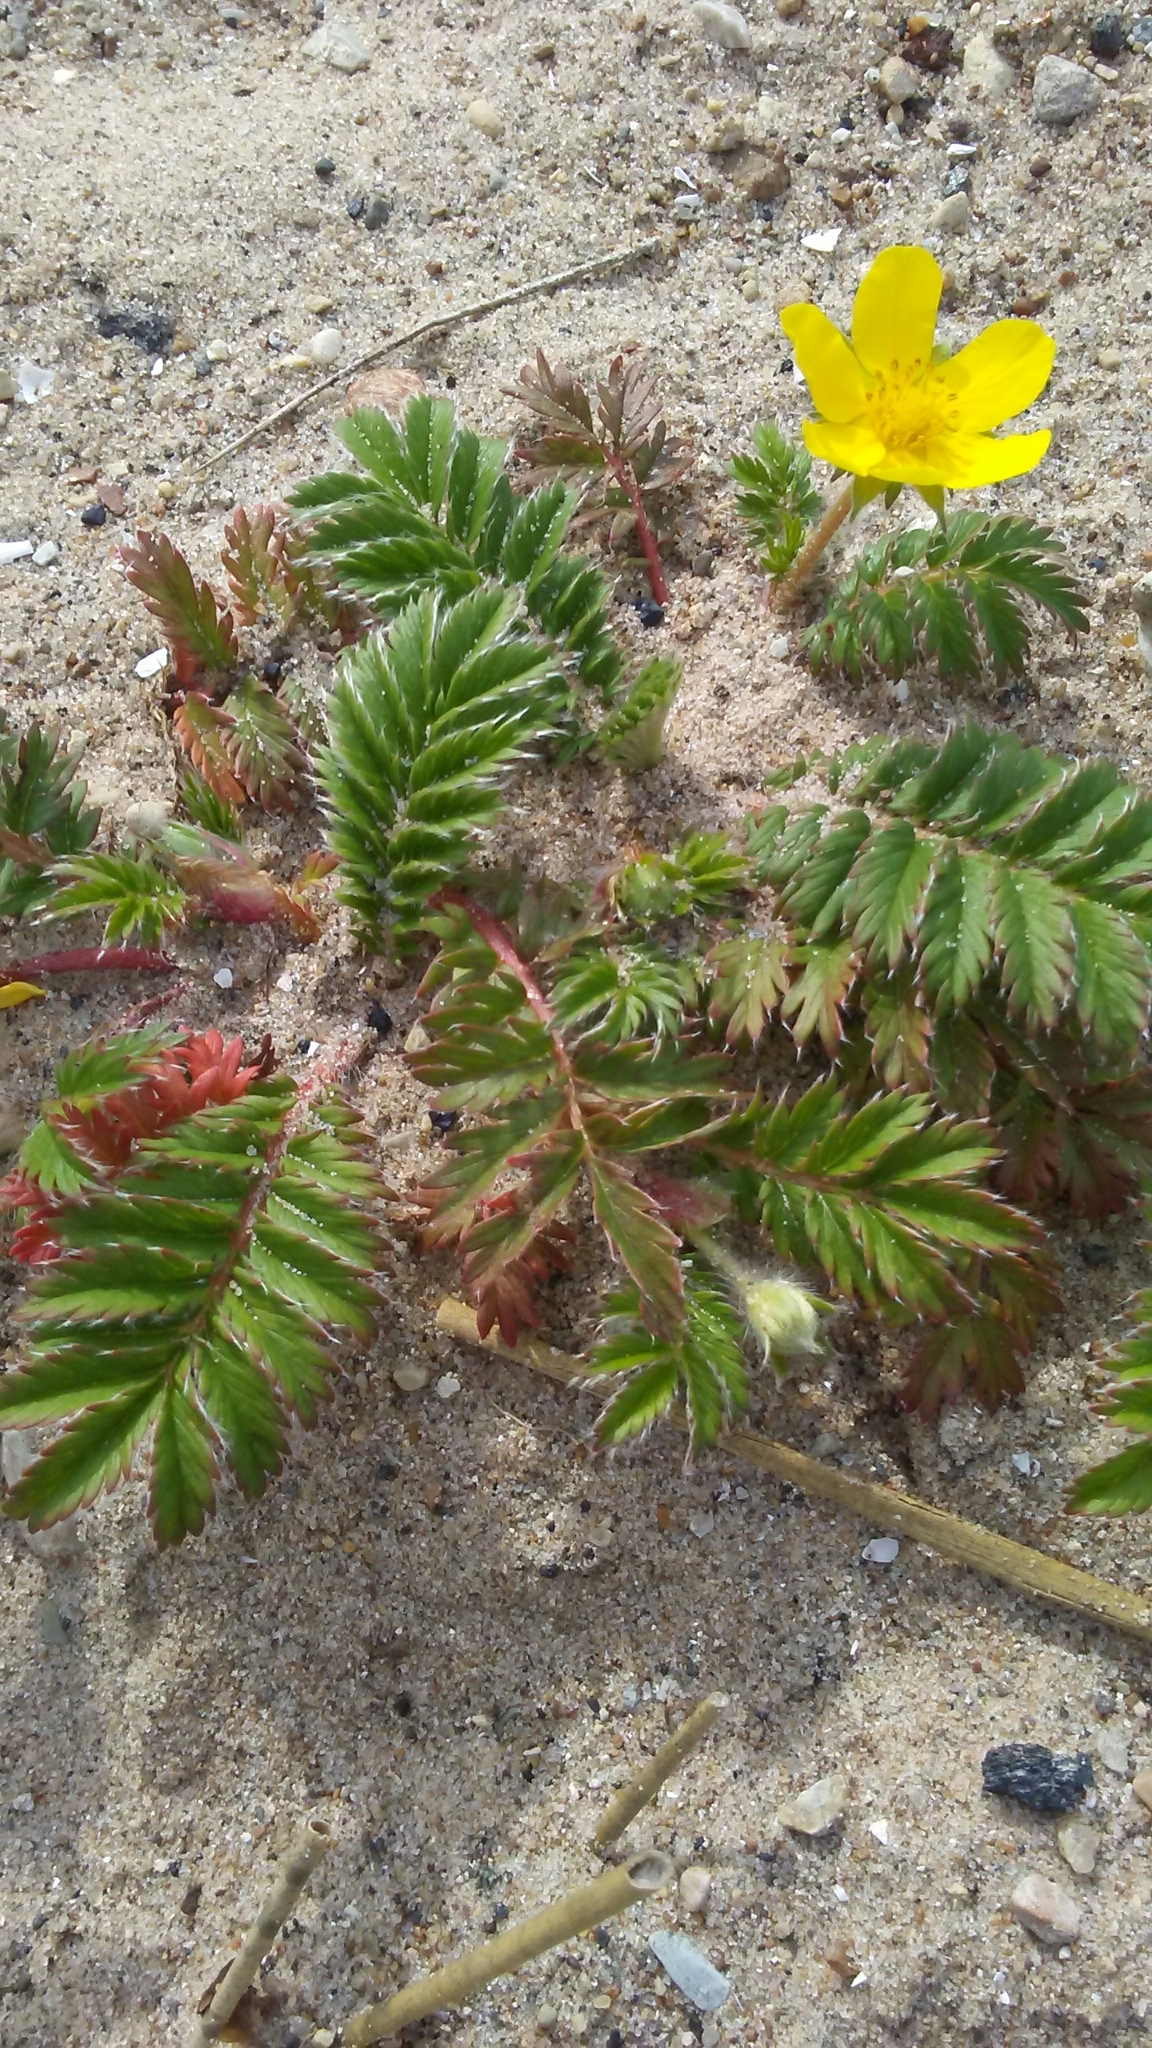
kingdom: Plantae
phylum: Tracheophyta
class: Magnoliopsida
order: Rosales
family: Rosaceae
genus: Argentina
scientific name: Argentina anserina
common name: Common silverweed
